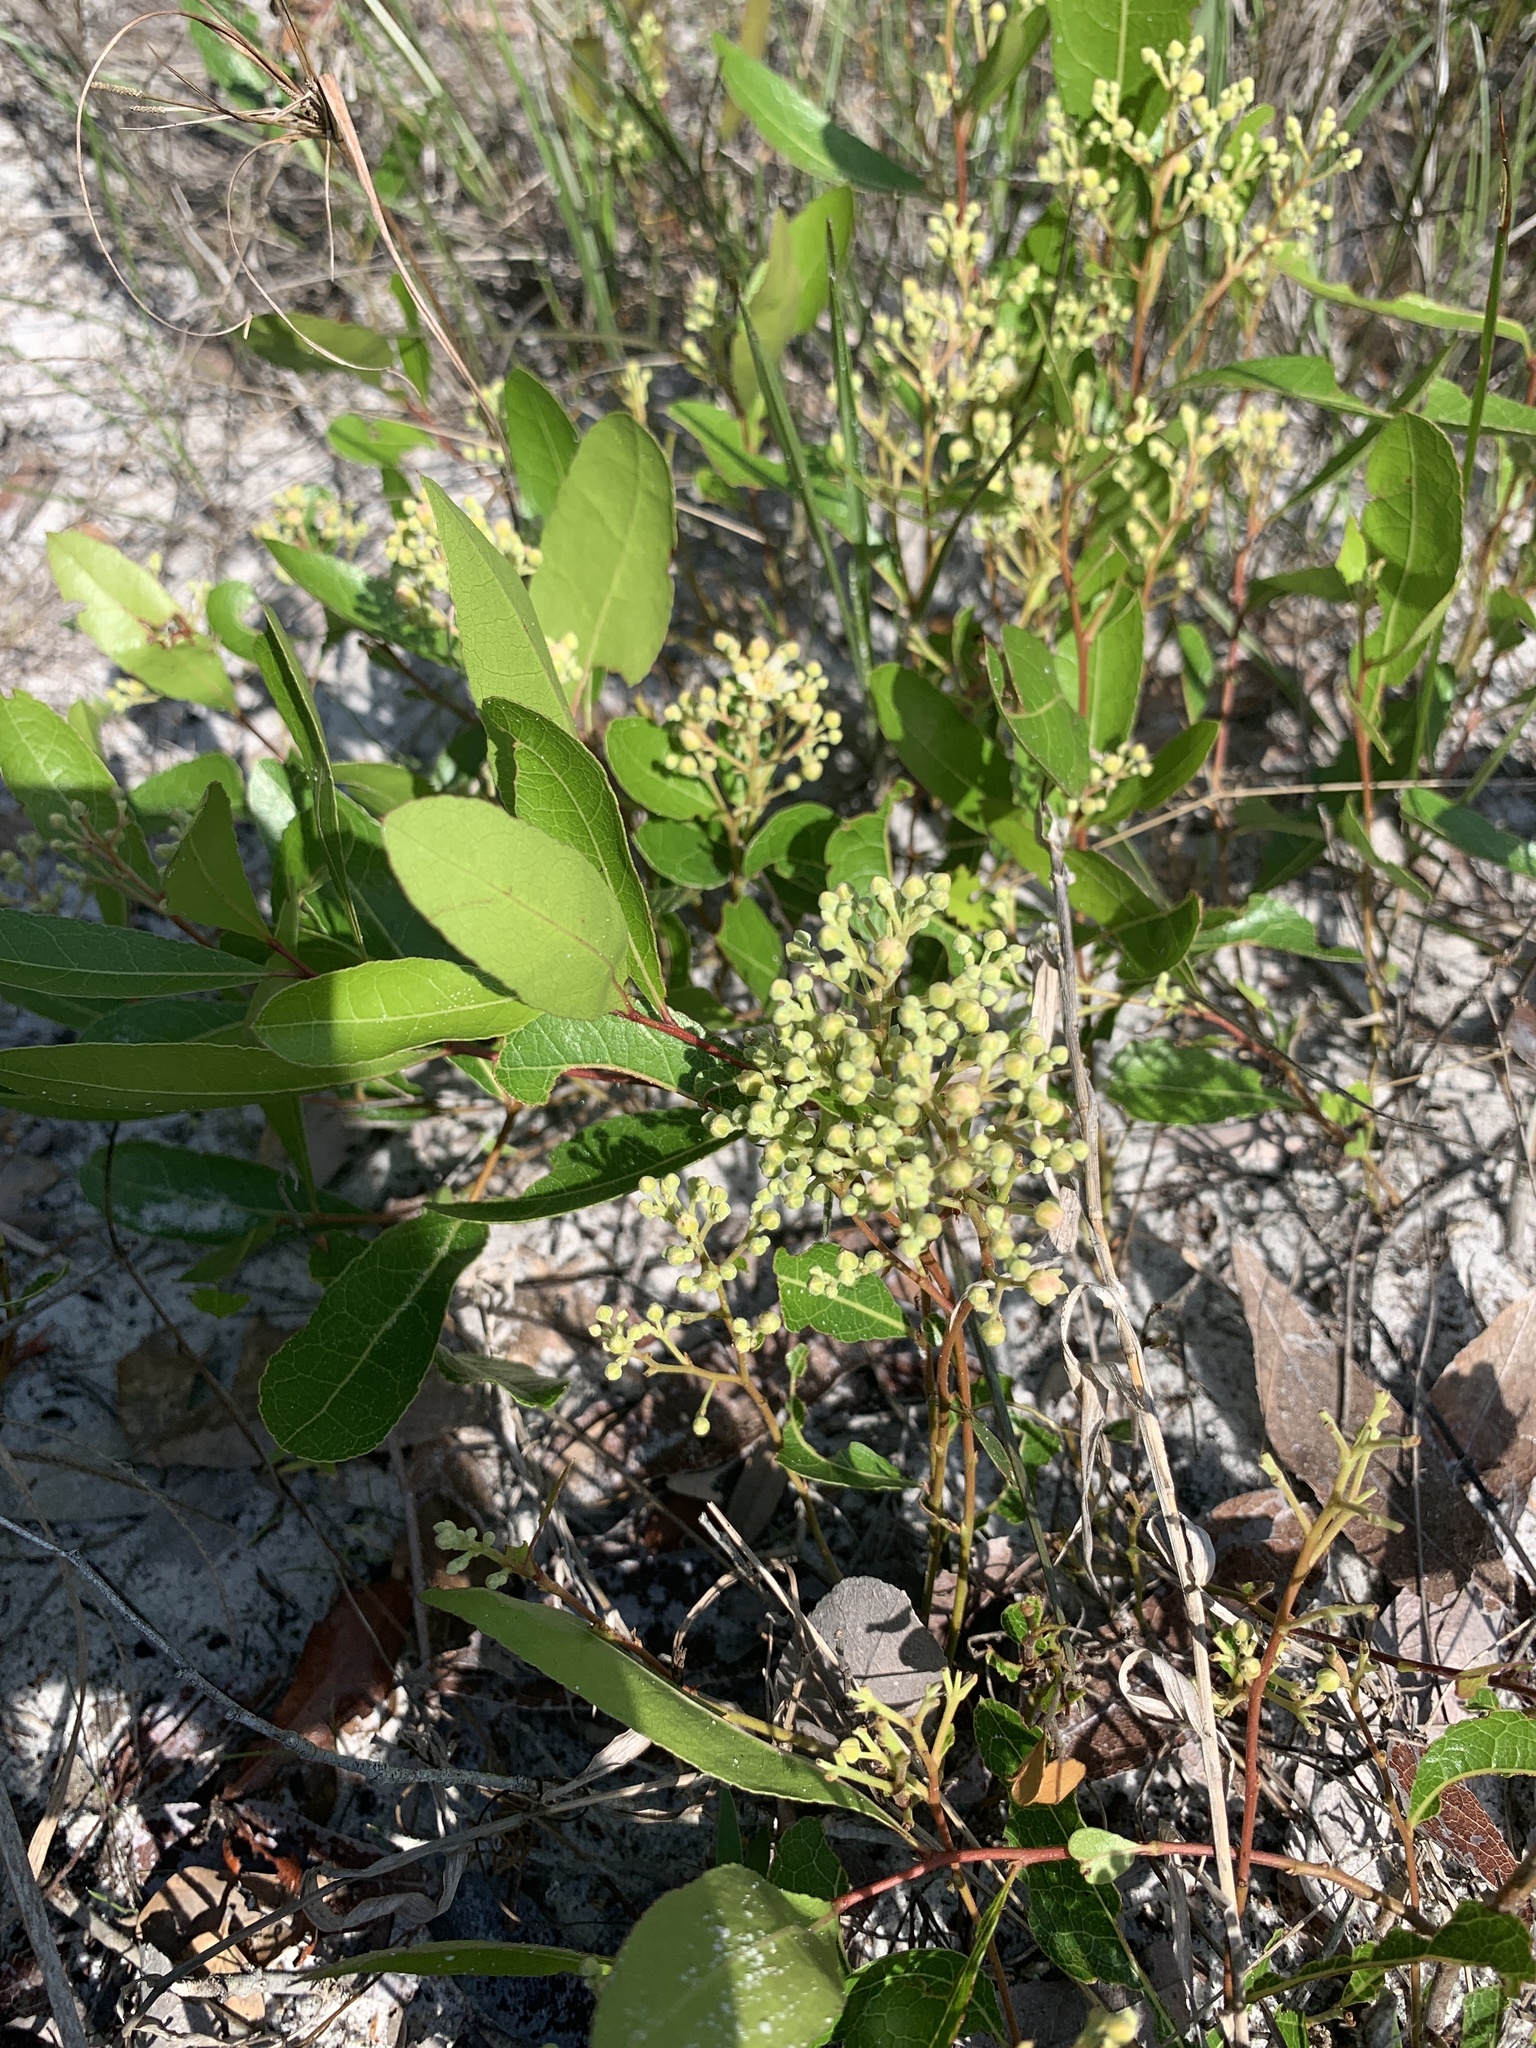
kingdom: Plantae
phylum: Tracheophyta
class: Magnoliopsida
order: Malpighiales
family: Chrysobalanaceae
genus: Geobalanus
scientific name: Geobalanus oblongifolius
